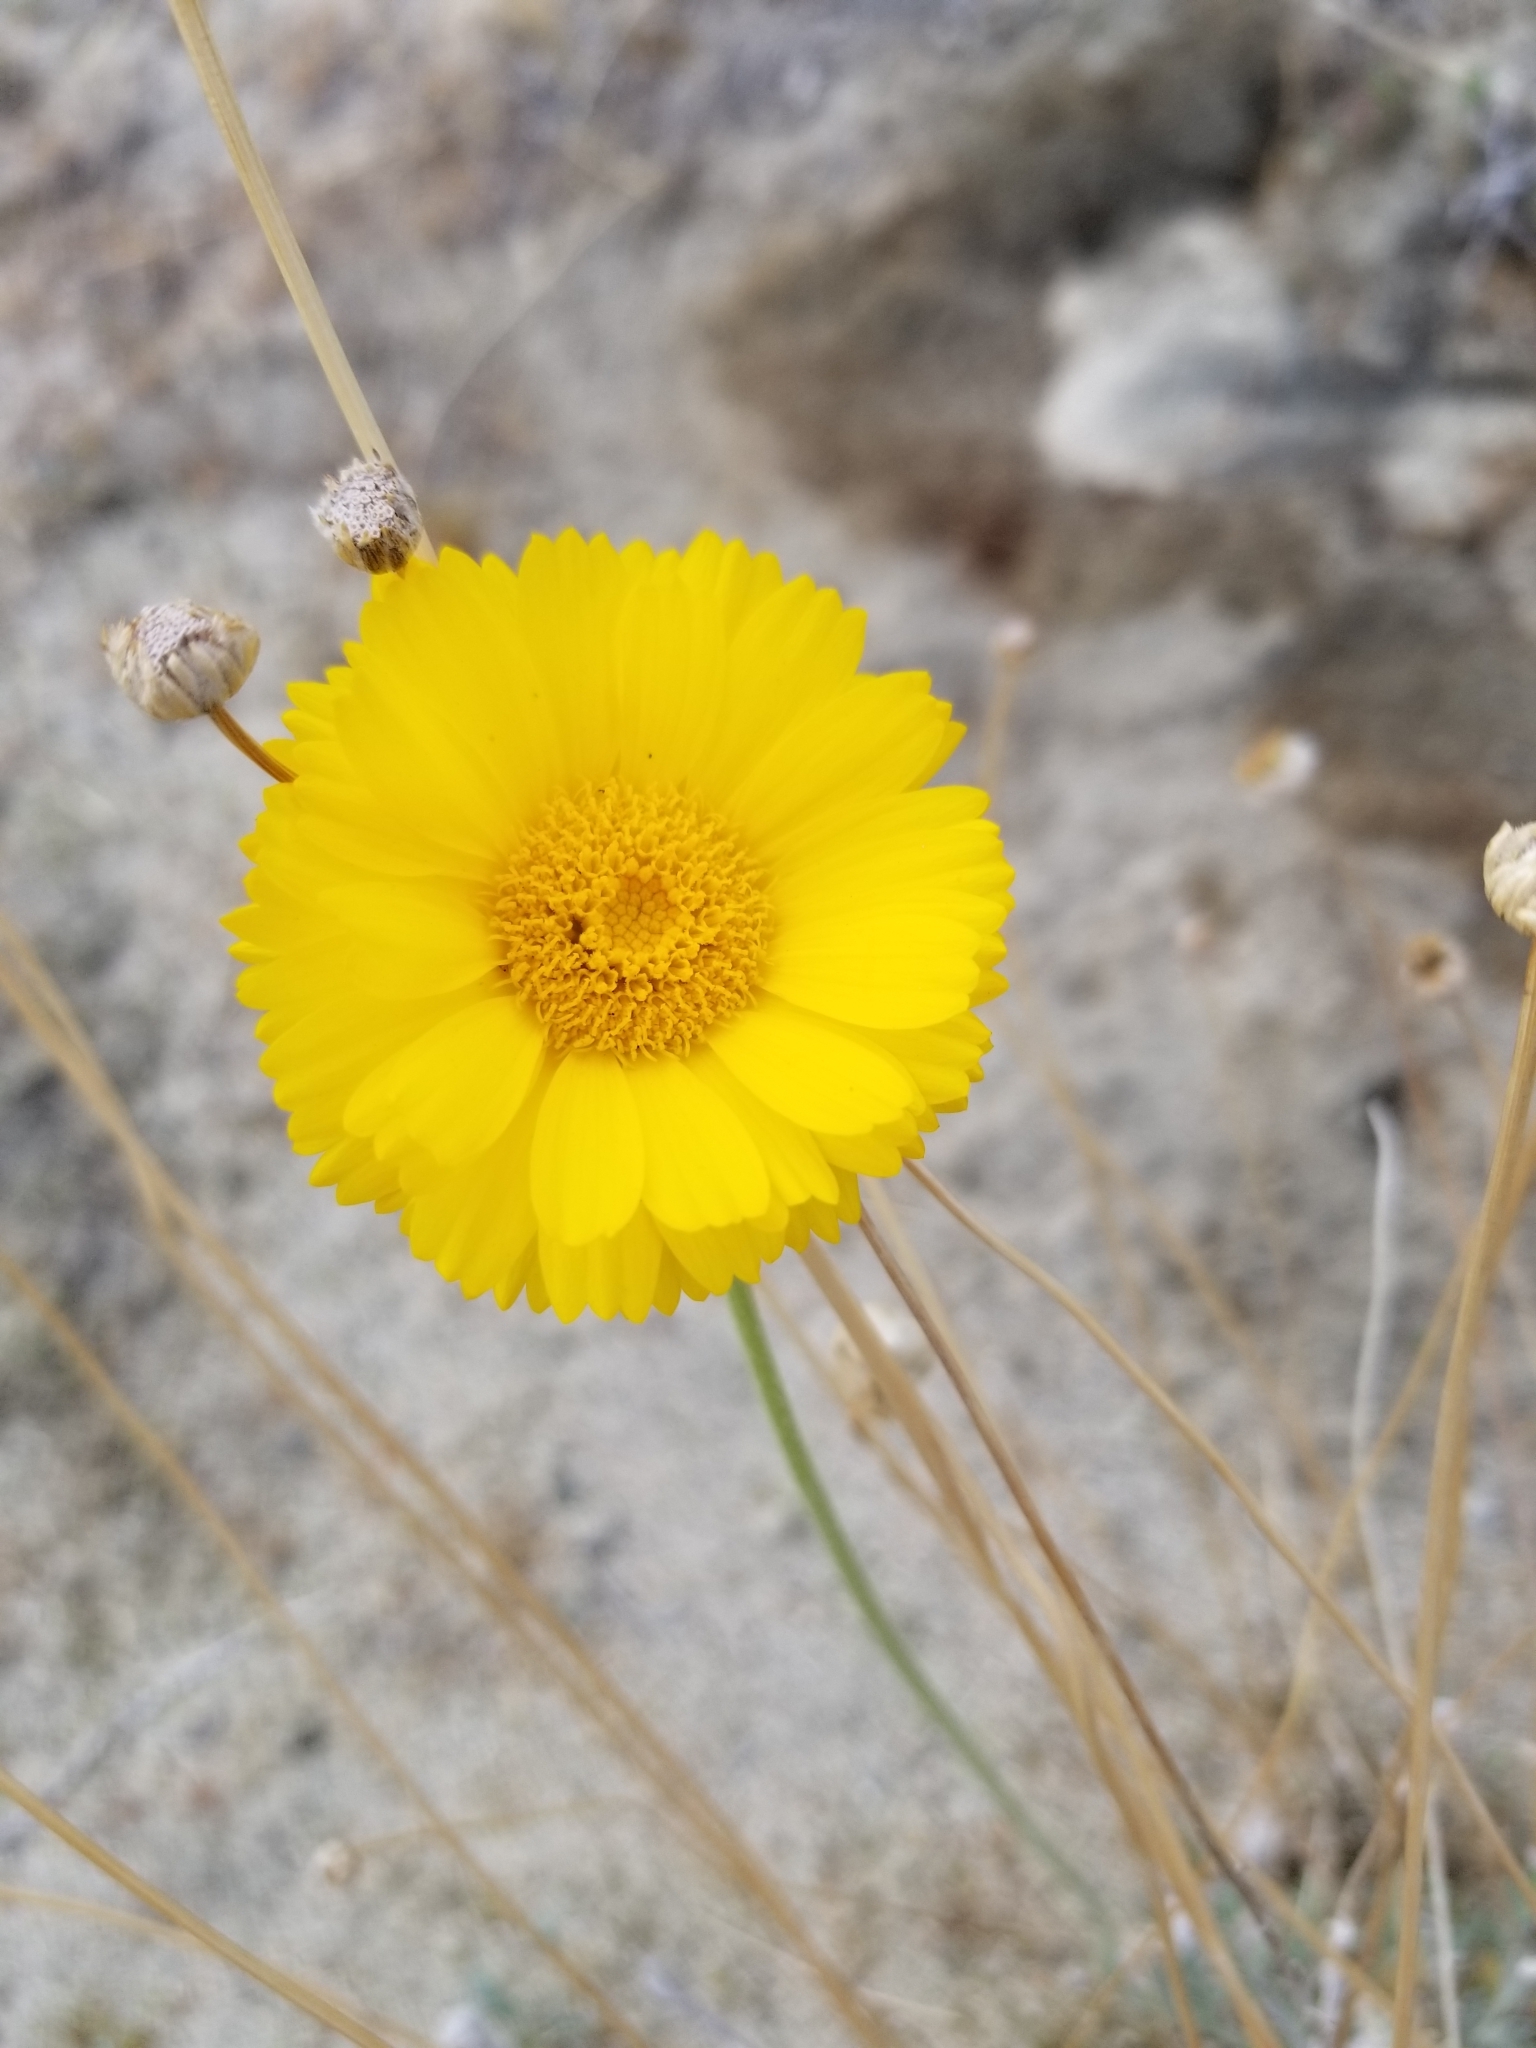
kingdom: Plantae
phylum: Tracheophyta
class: Magnoliopsida
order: Asterales
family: Asteraceae
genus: Baileya
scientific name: Baileya multiradiata
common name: Desert-marigold
